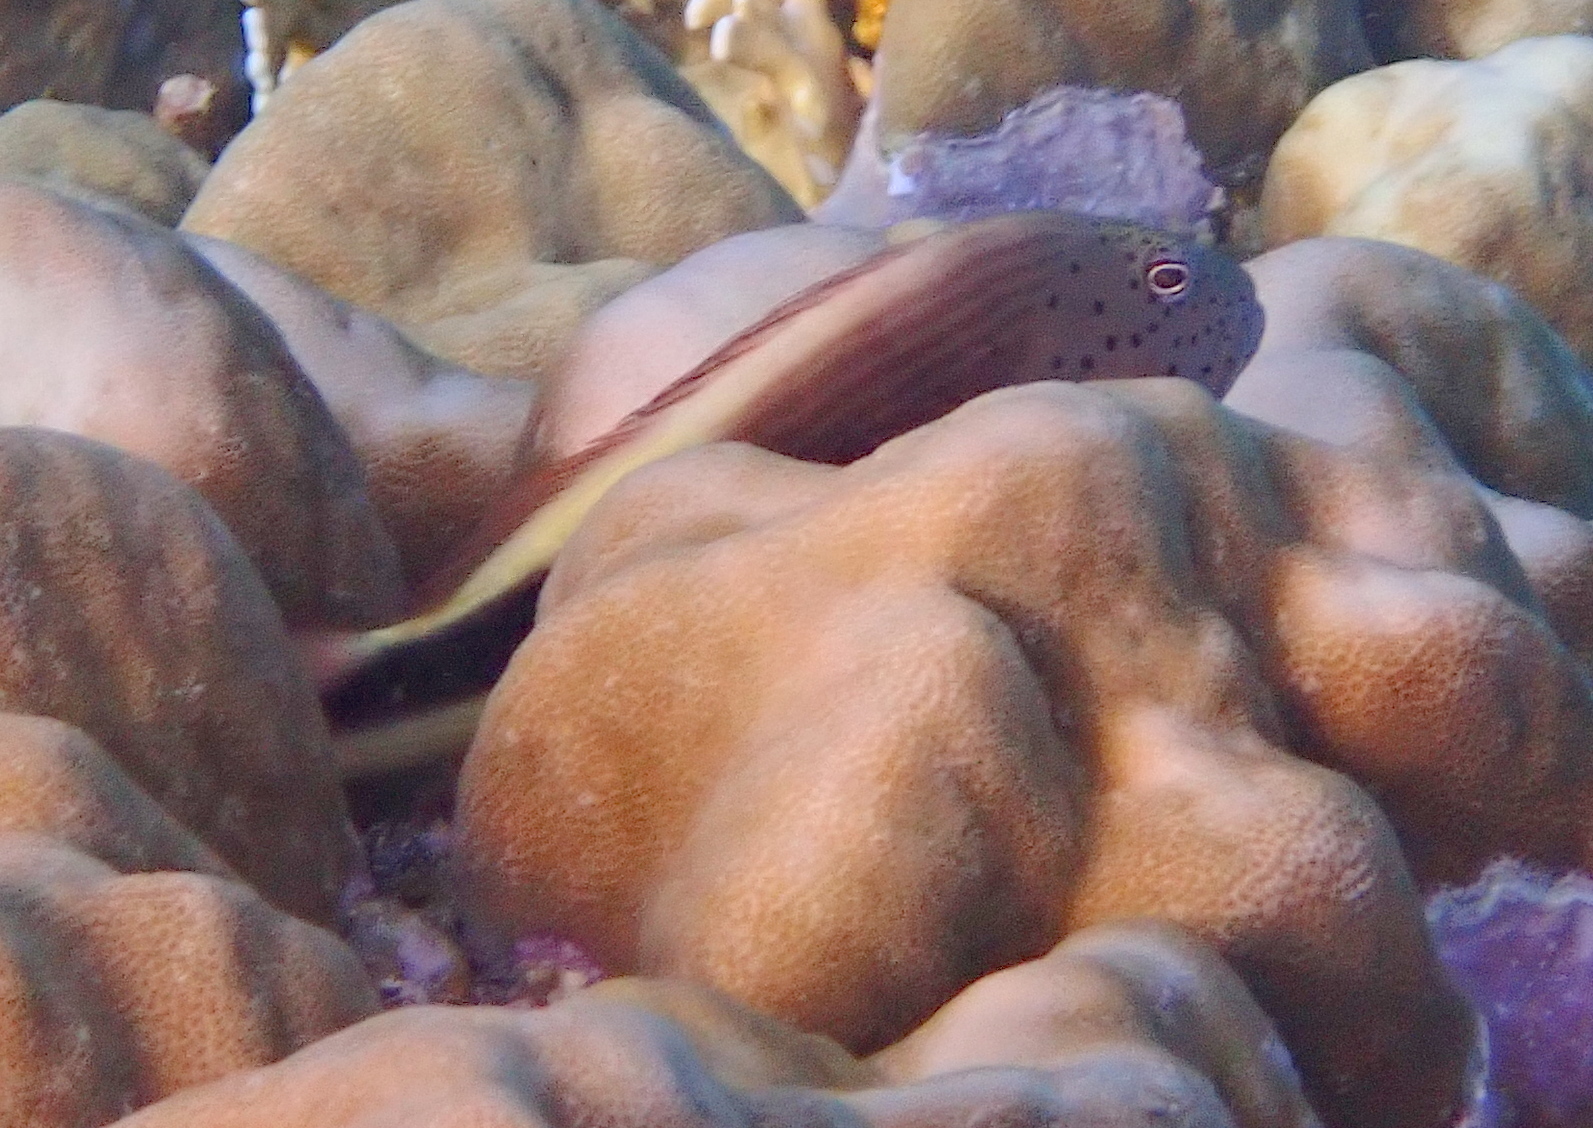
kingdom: Animalia
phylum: Chordata
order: Perciformes
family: Cirrhitidae
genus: Paracirrhites
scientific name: Paracirrhites forsteri
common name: Freckled hawkfish
